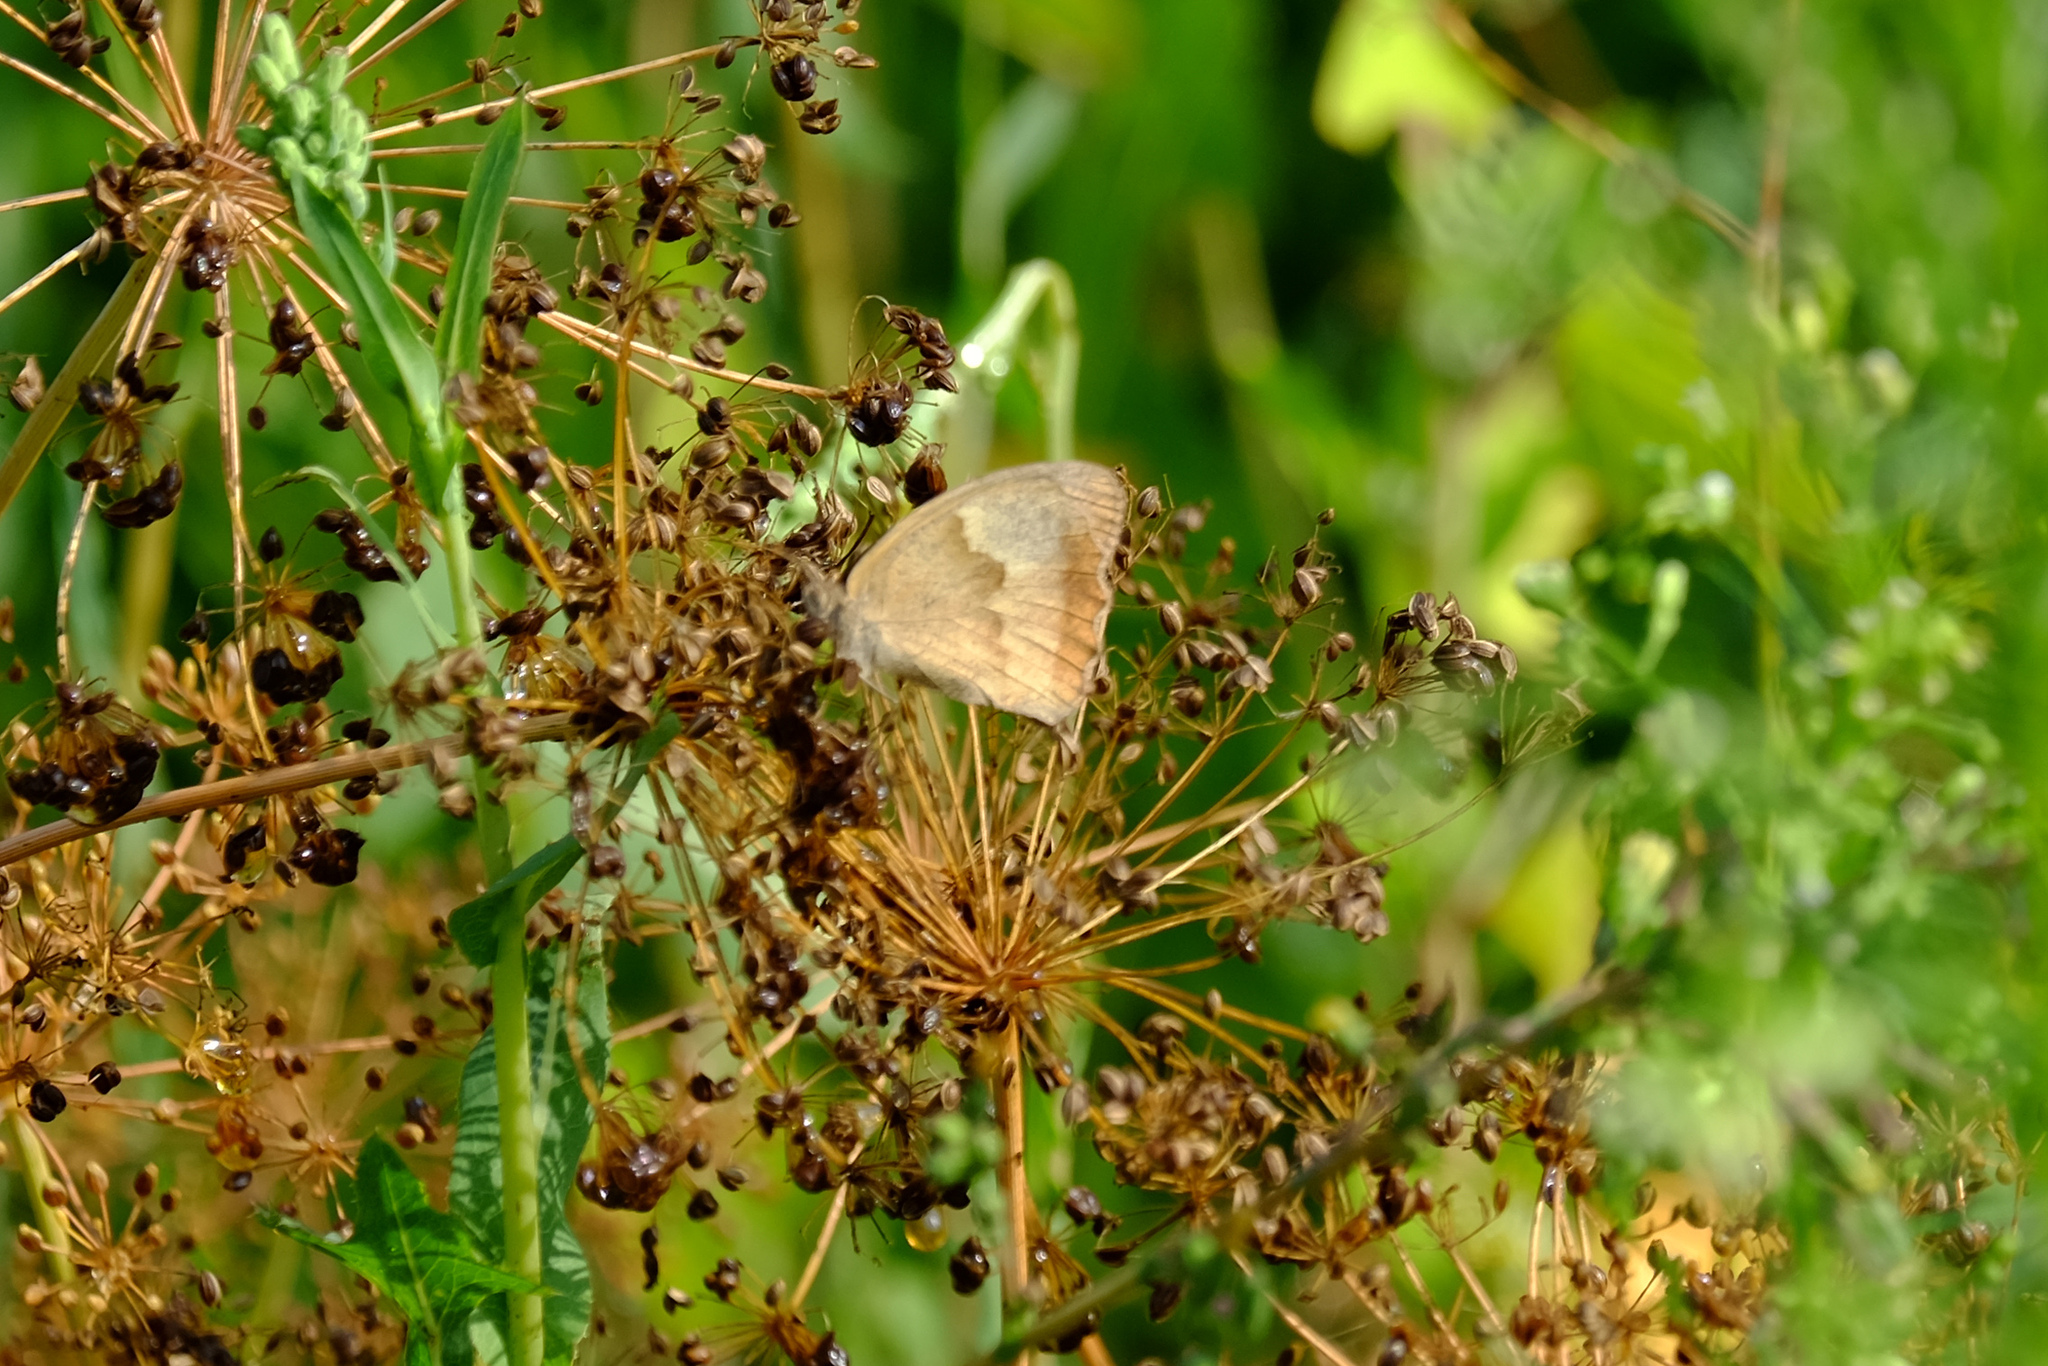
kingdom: Animalia
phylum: Arthropoda
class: Insecta
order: Lepidoptera
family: Nymphalidae
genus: Maniola
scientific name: Maniola jurtina
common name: Meadow brown
